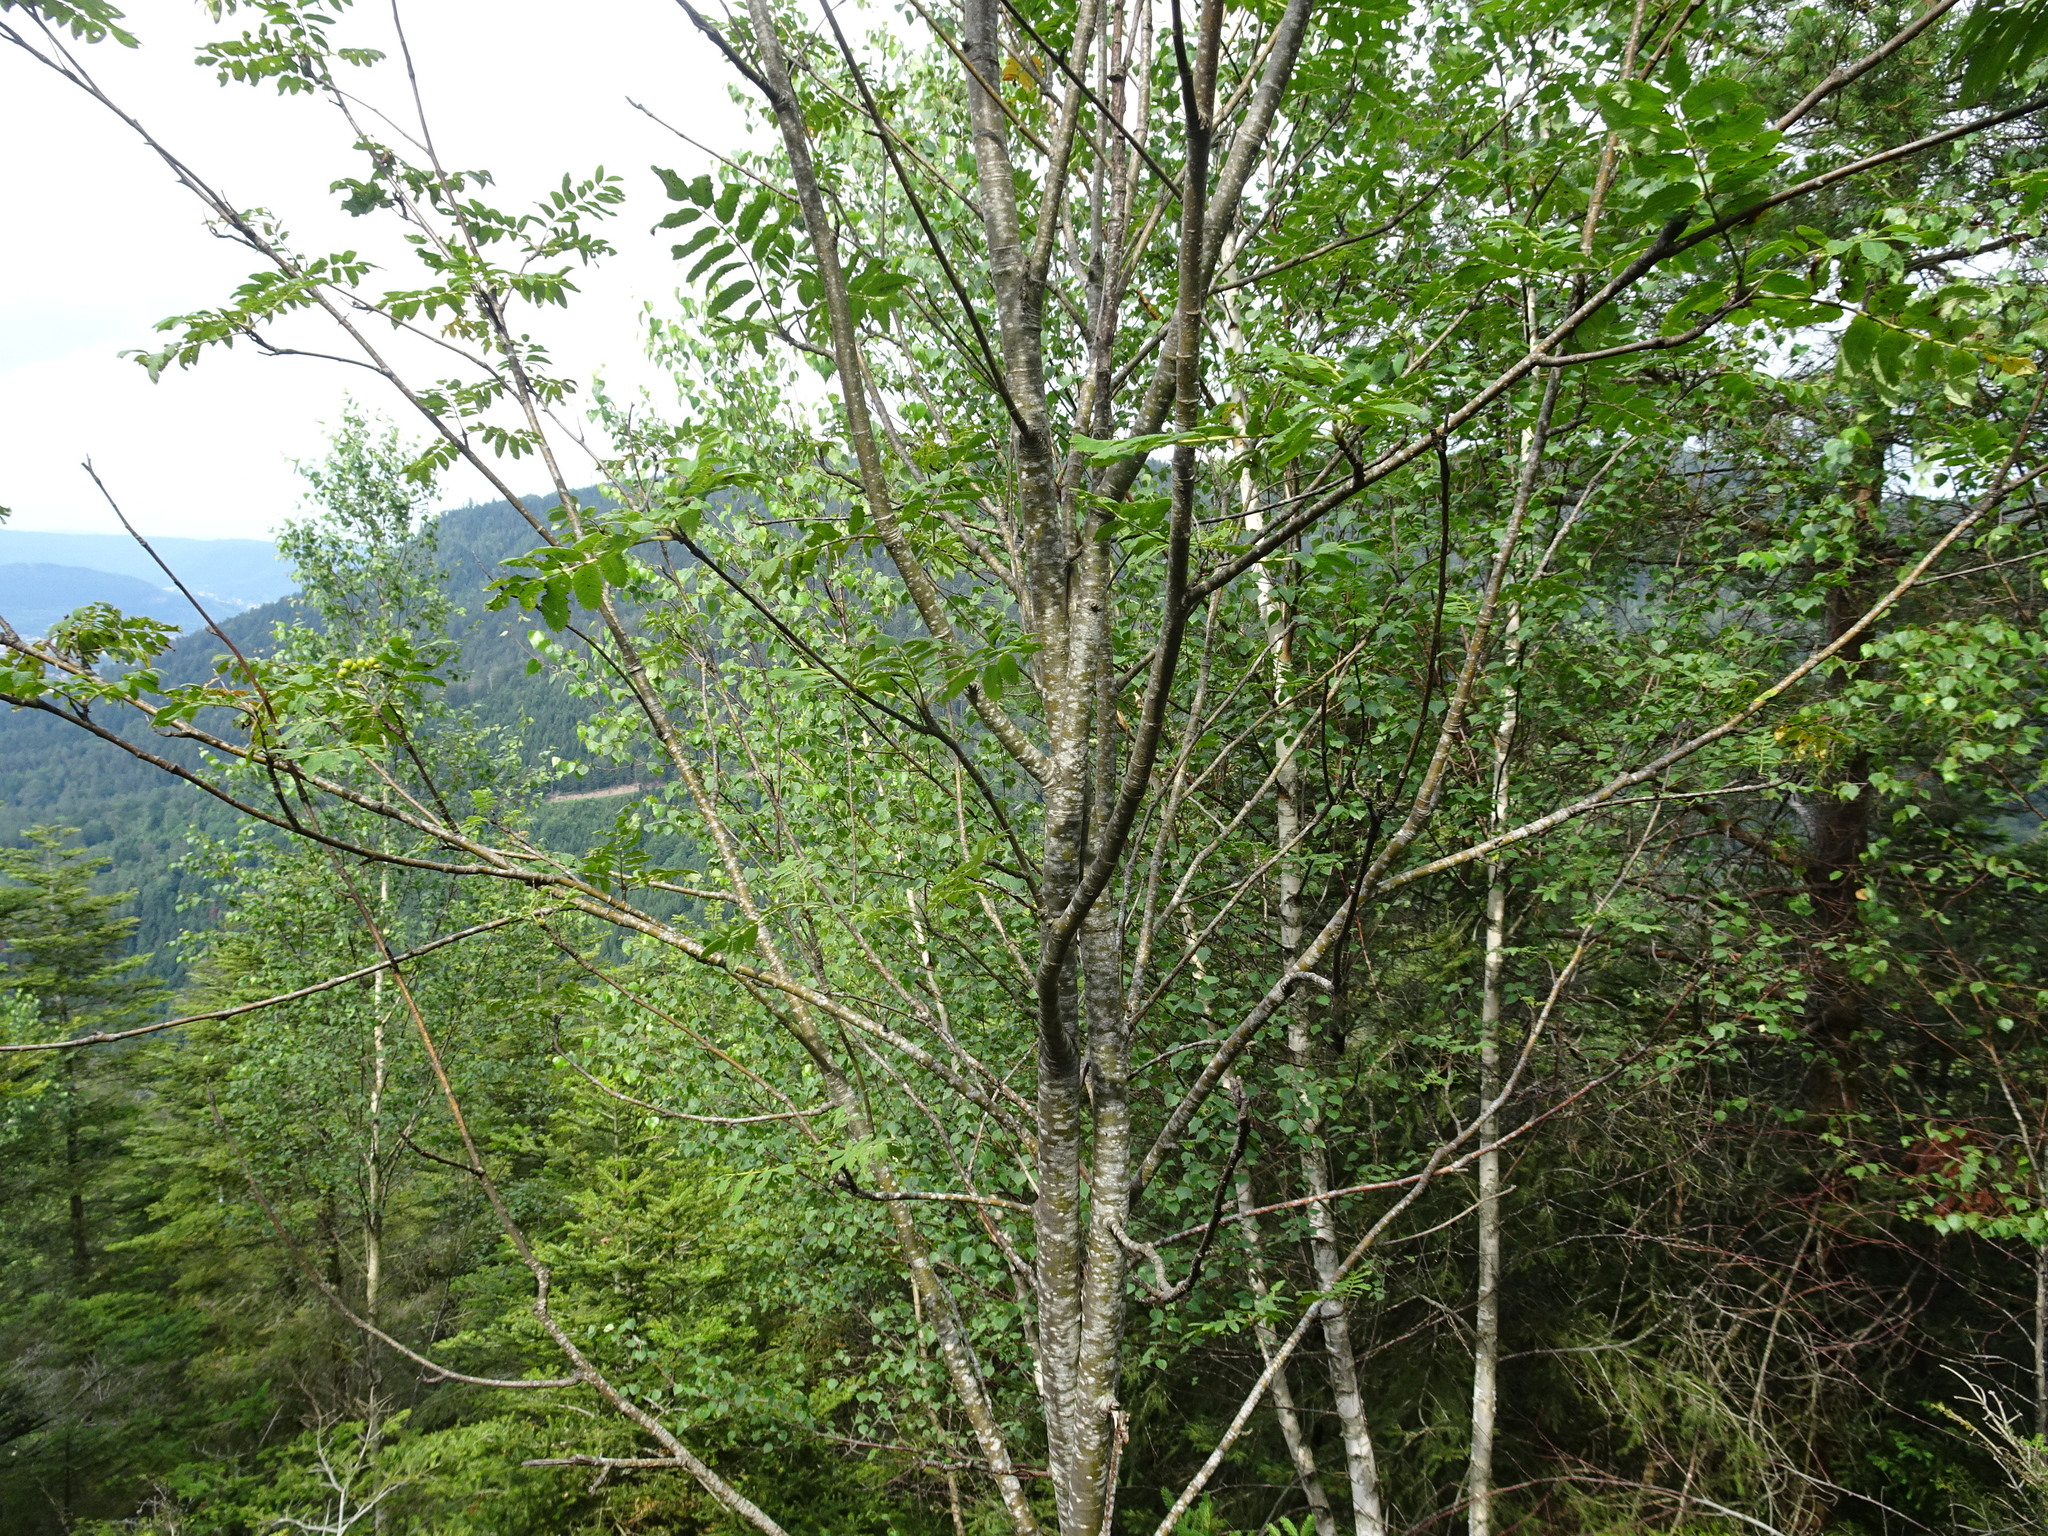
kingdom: Plantae
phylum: Tracheophyta
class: Magnoliopsida
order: Rosales
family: Rosaceae
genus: Sorbus
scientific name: Sorbus aucuparia
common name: Rowan
